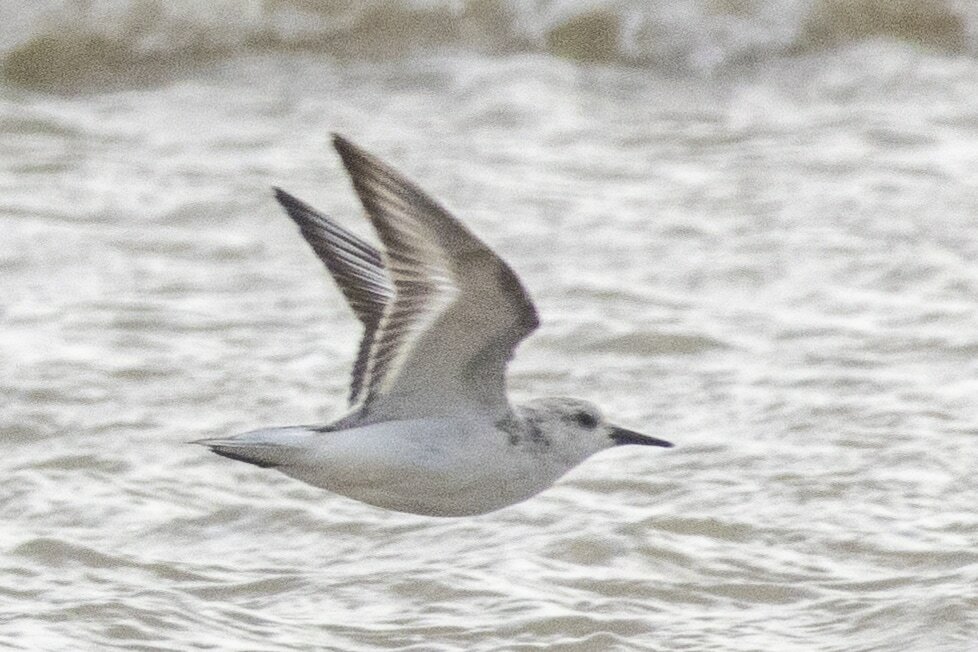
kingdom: Animalia
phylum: Chordata
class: Aves
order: Charadriiformes
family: Scolopacidae
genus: Calidris
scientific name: Calidris alba
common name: Sanderling
